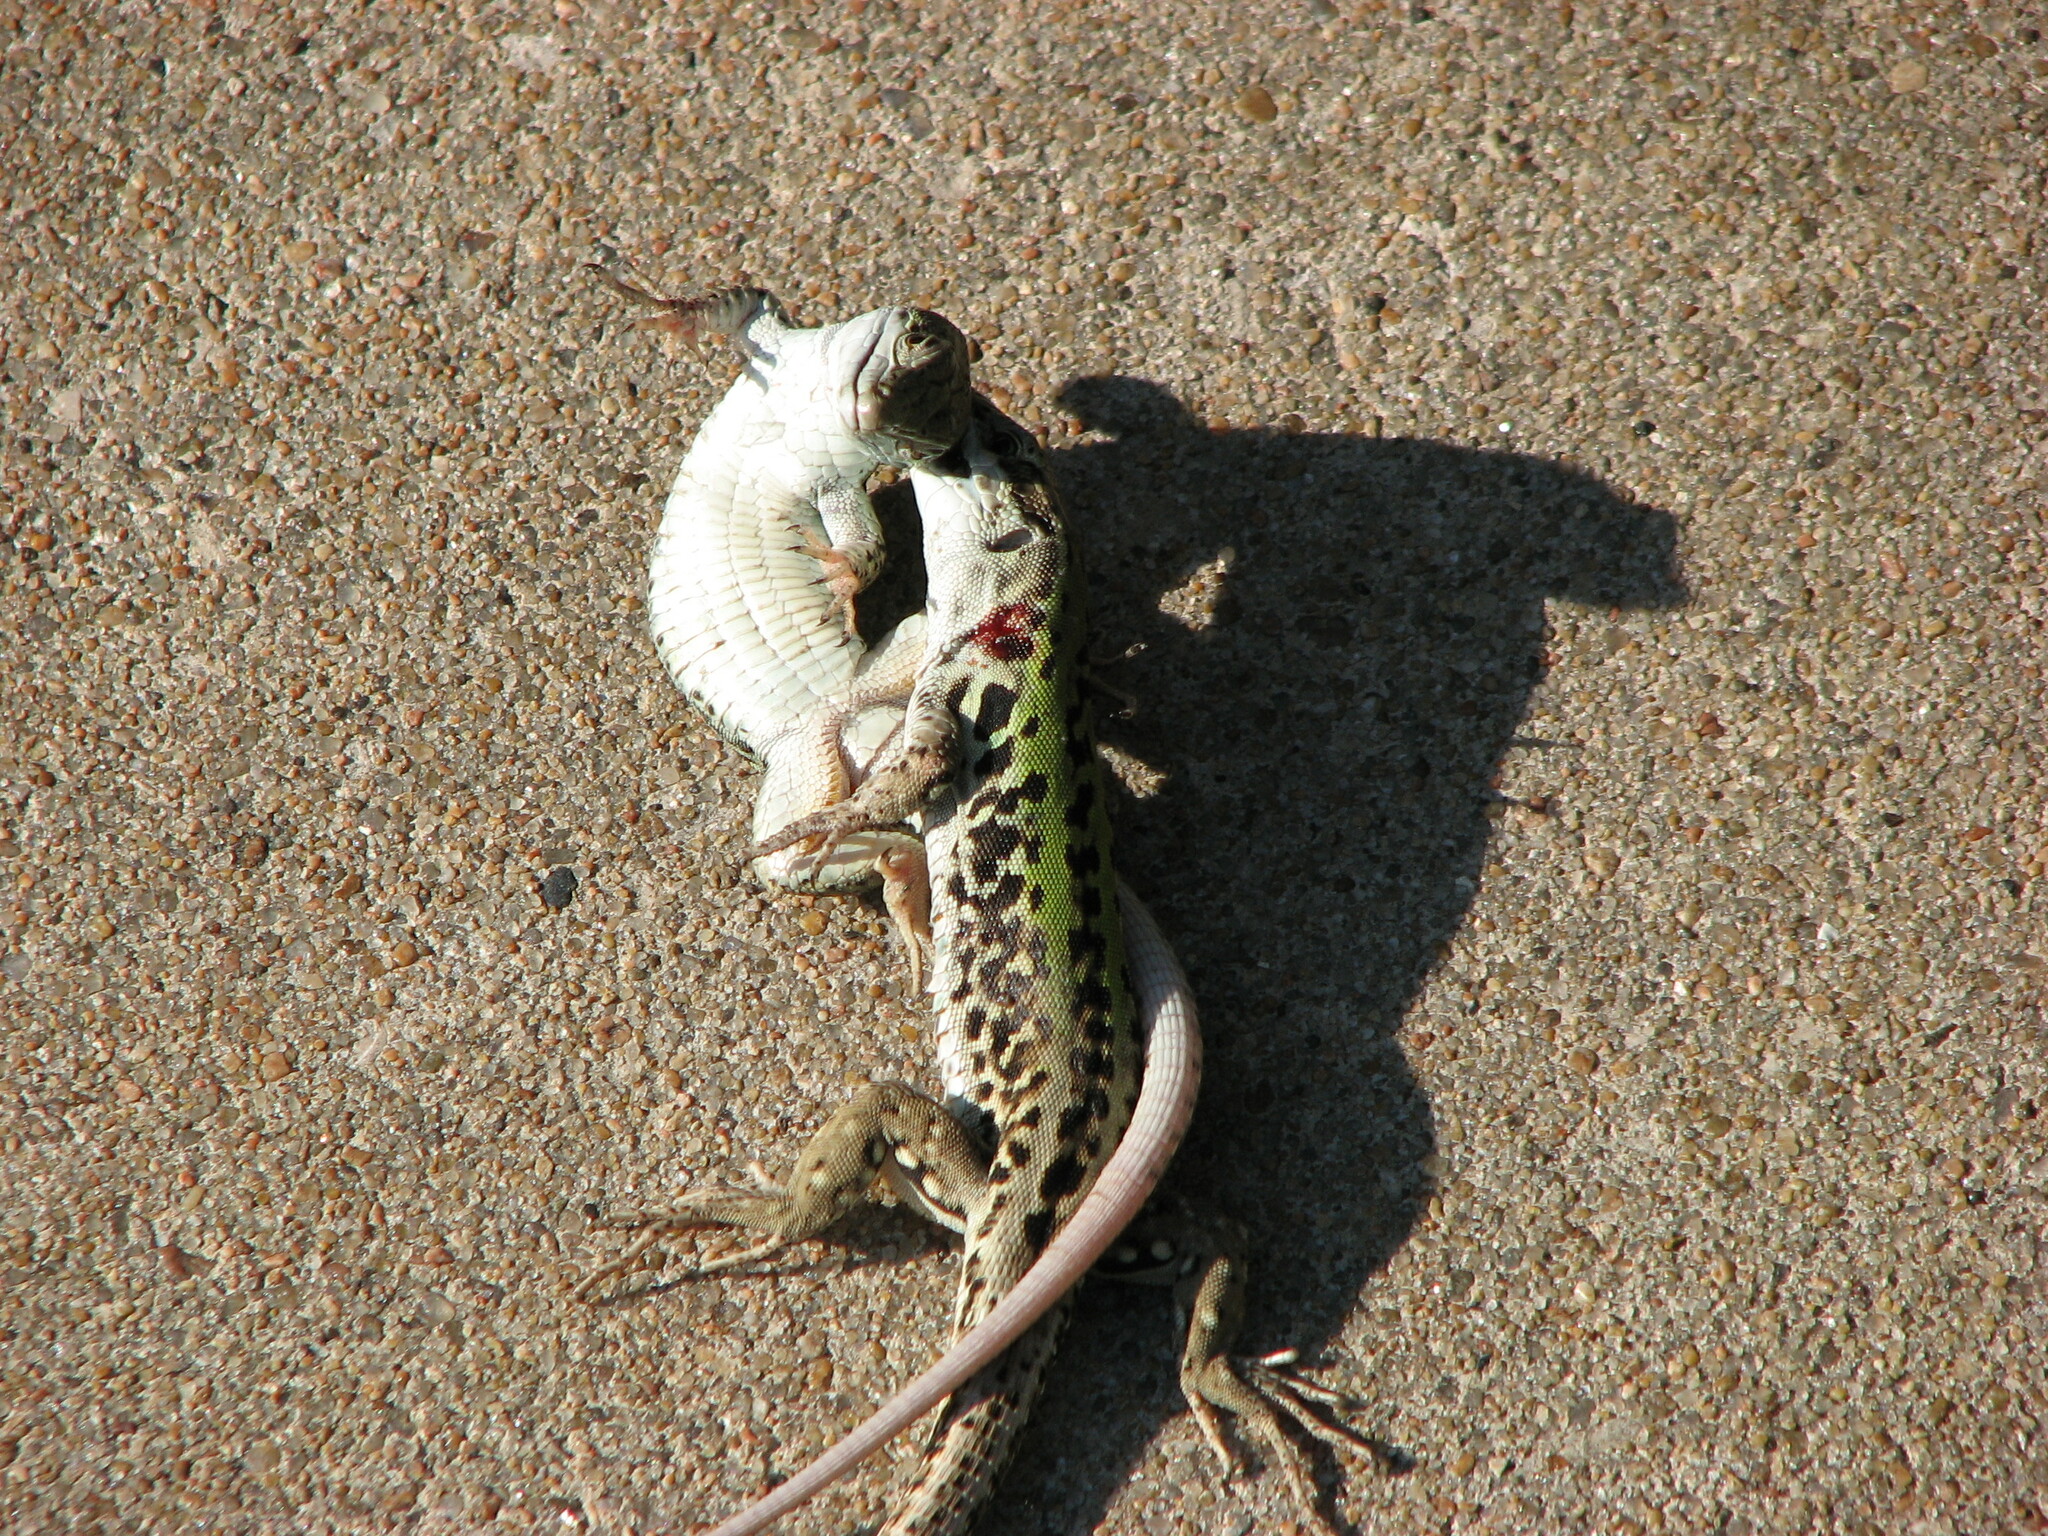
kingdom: Animalia
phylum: Chordata
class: Squamata
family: Lacertidae
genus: Podarcis
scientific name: Podarcis siculus
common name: Italian wall lizard
